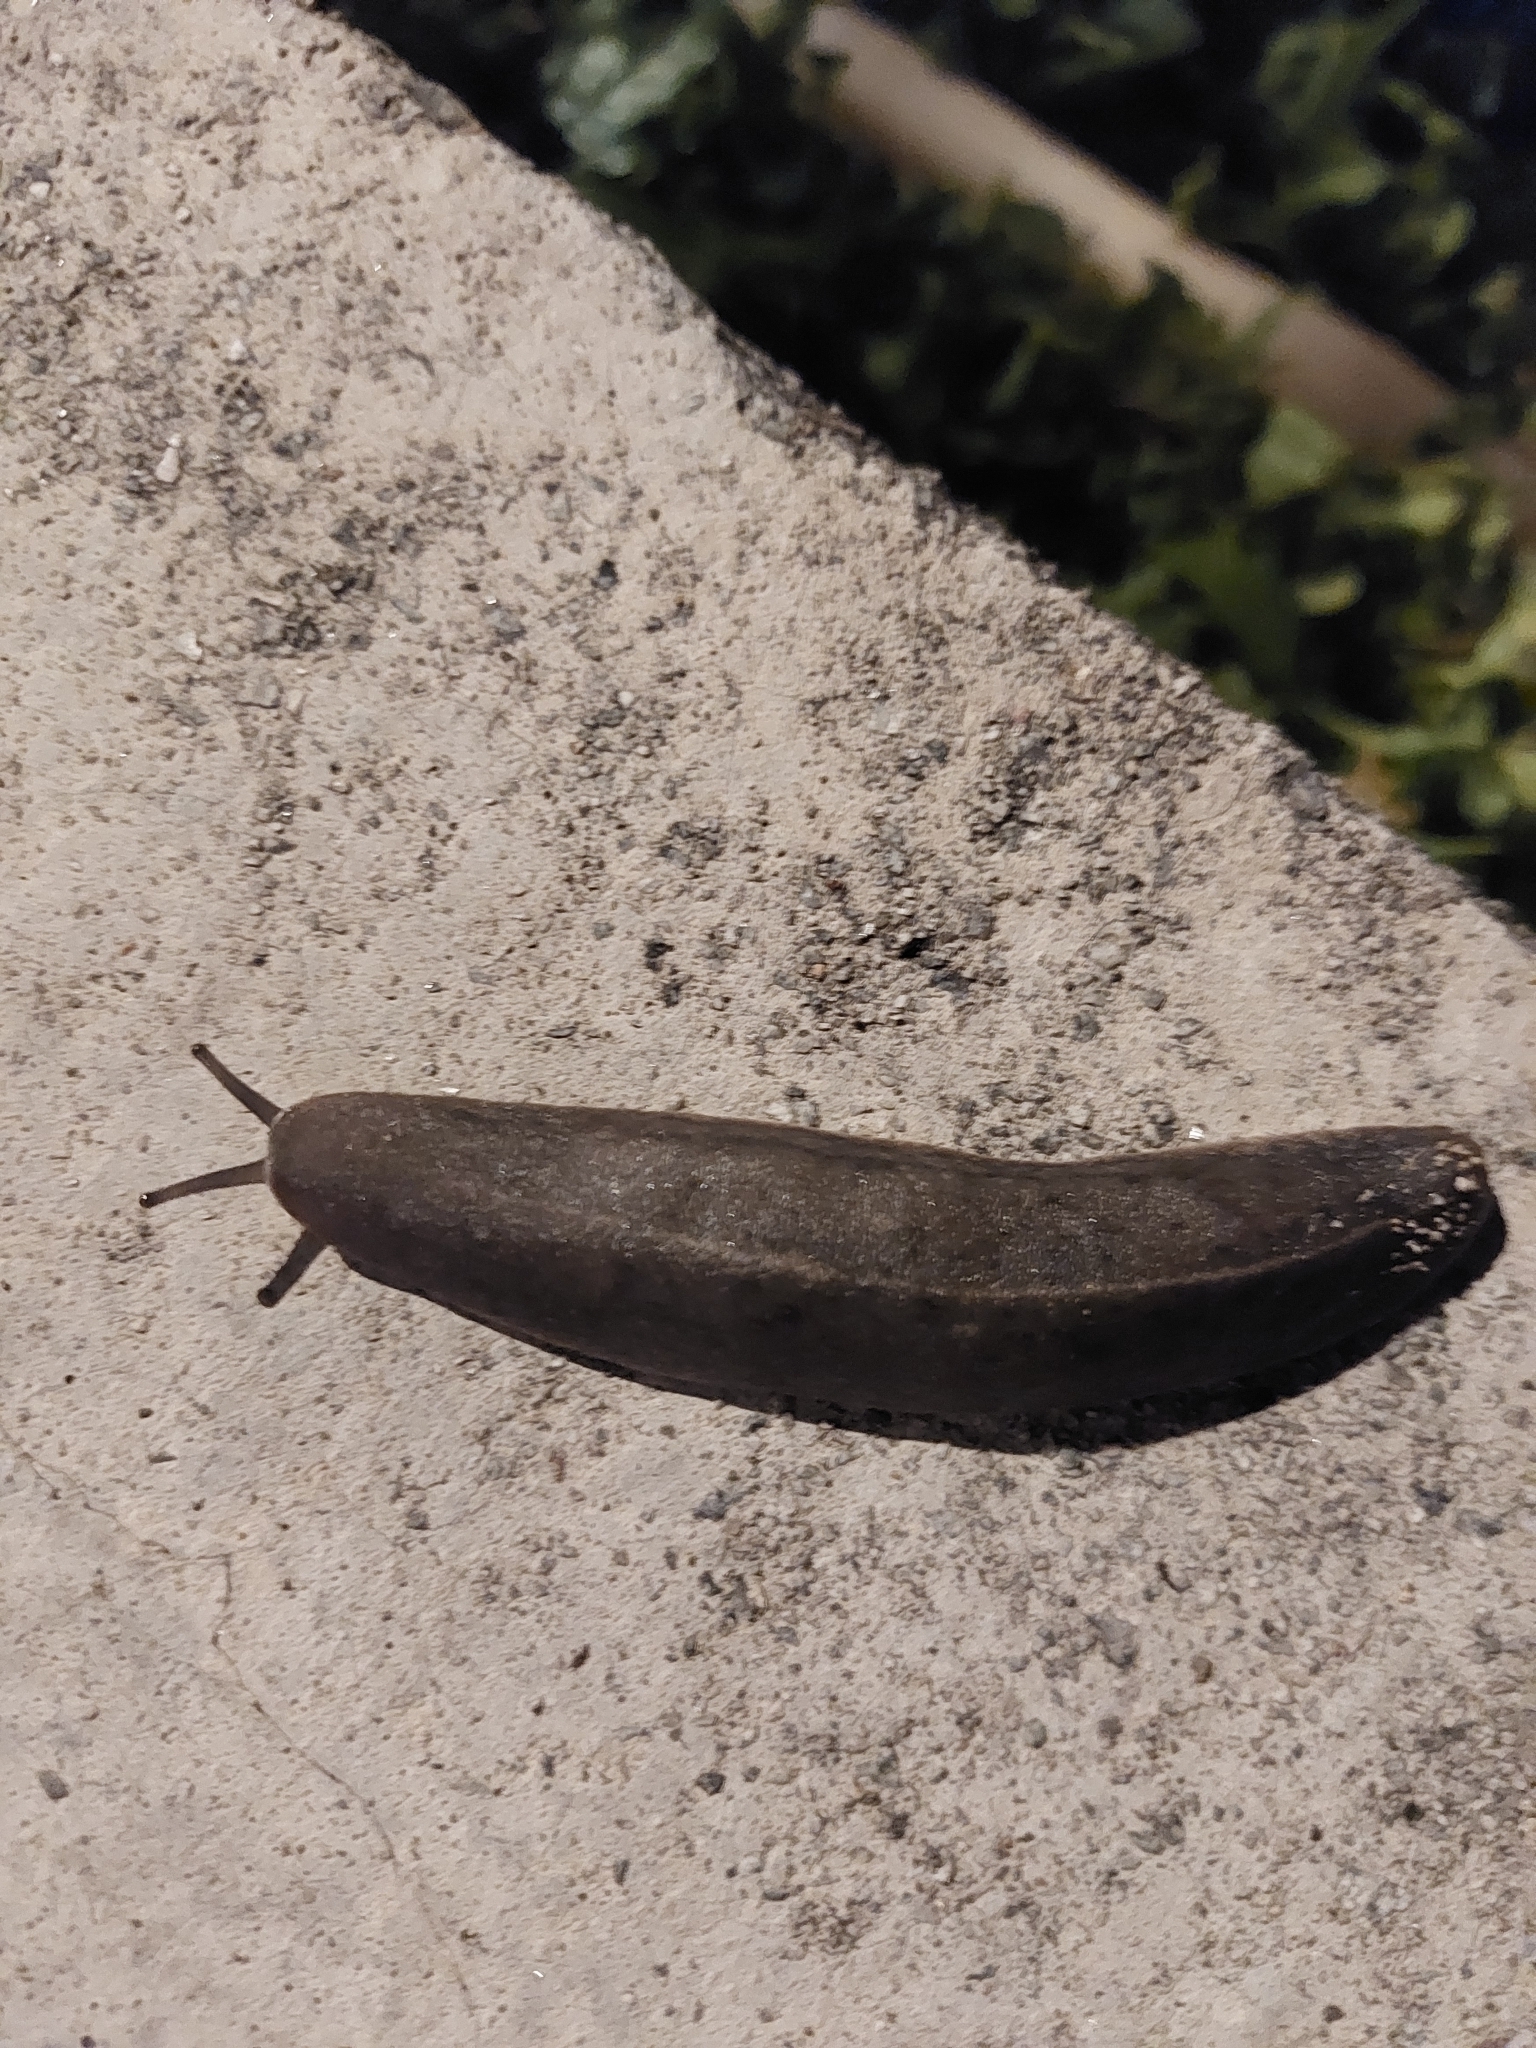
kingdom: Animalia
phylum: Mollusca
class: Gastropoda
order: Systellommatophora
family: Veronicellidae
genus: Laevicaulis
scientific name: Laevicaulis alte
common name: Tropical leatherleaf
